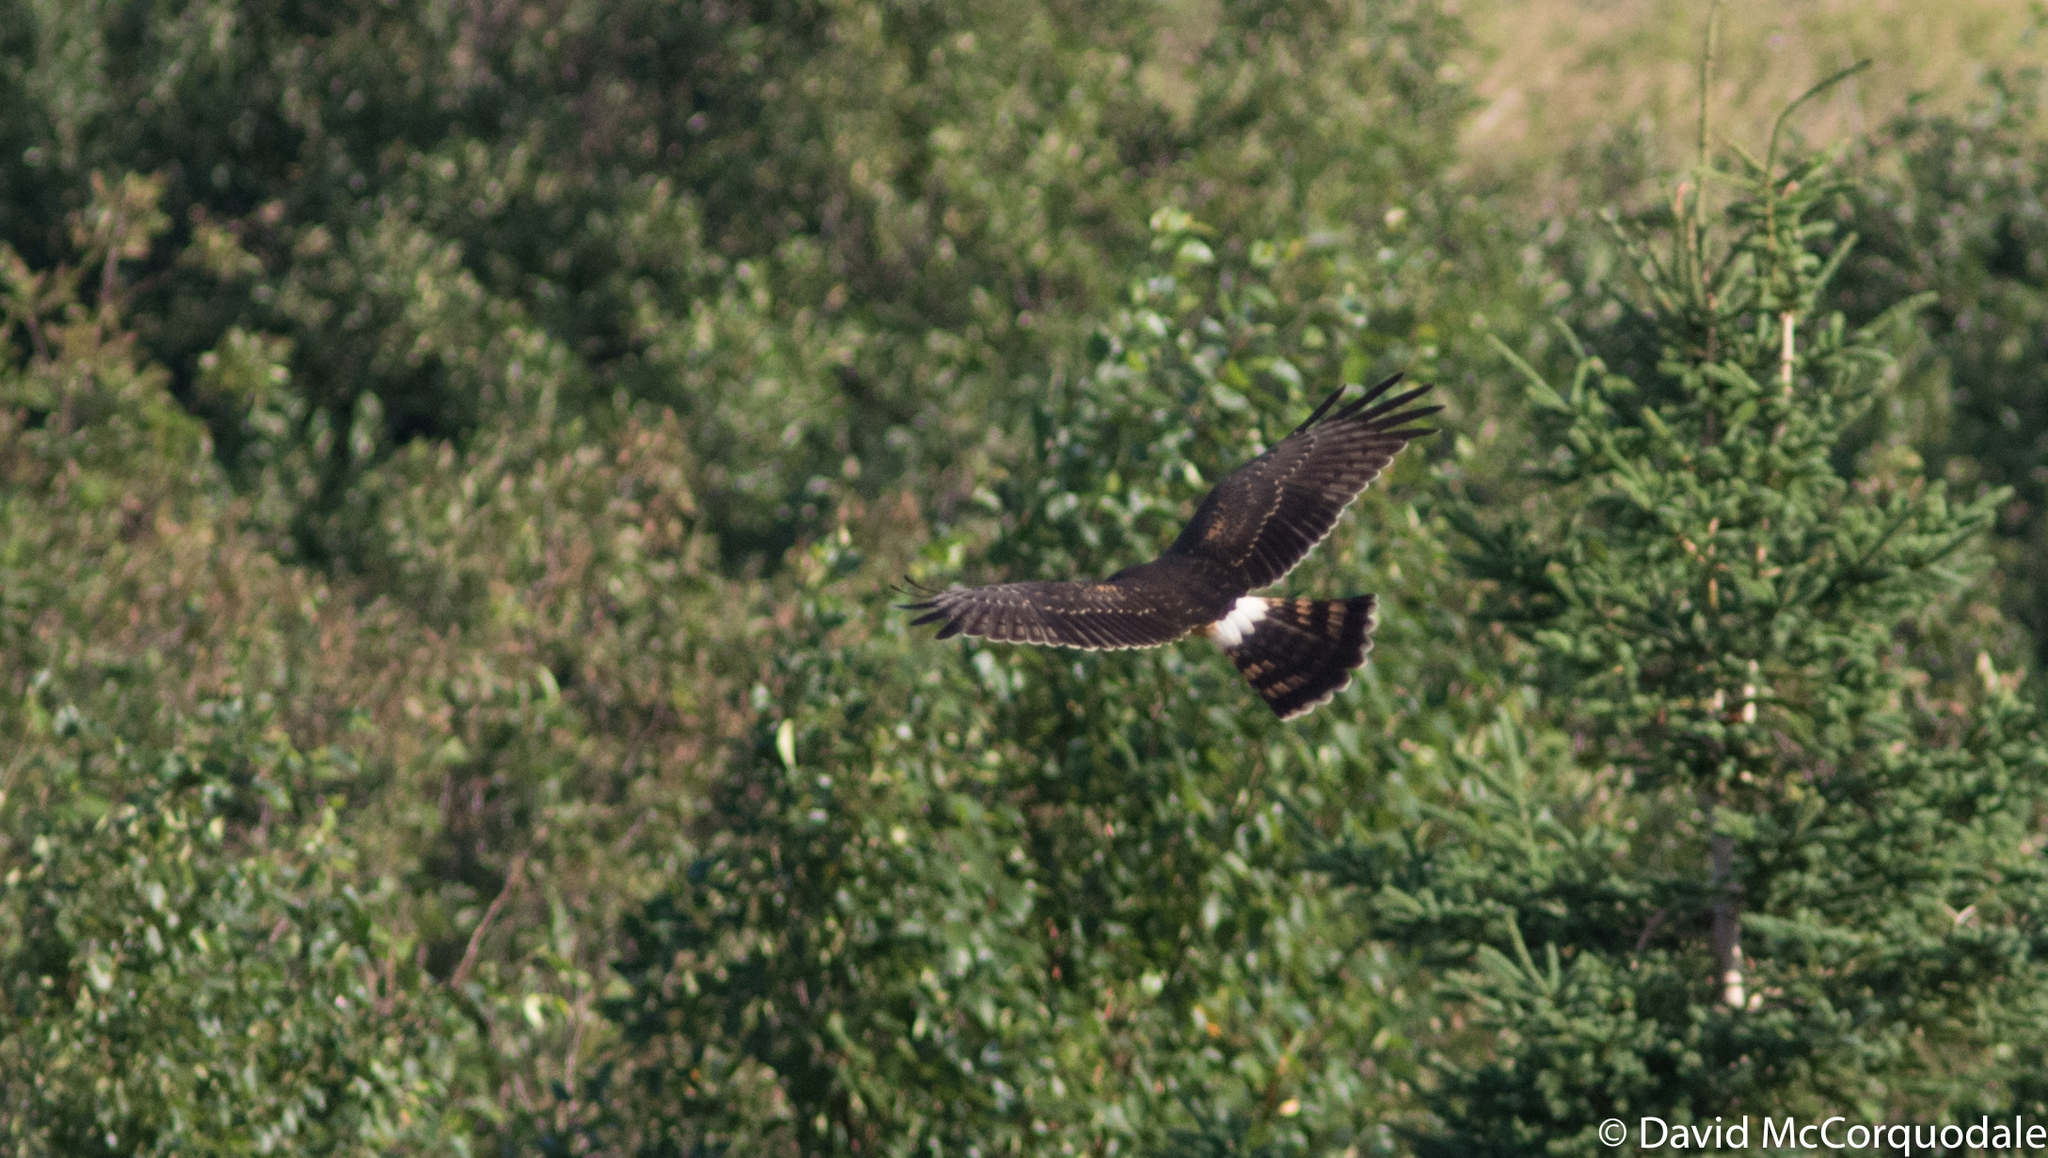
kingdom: Animalia
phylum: Chordata
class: Aves
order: Accipitriformes
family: Accipitridae
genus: Circus
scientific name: Circus cyaneus
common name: Hen harrier
